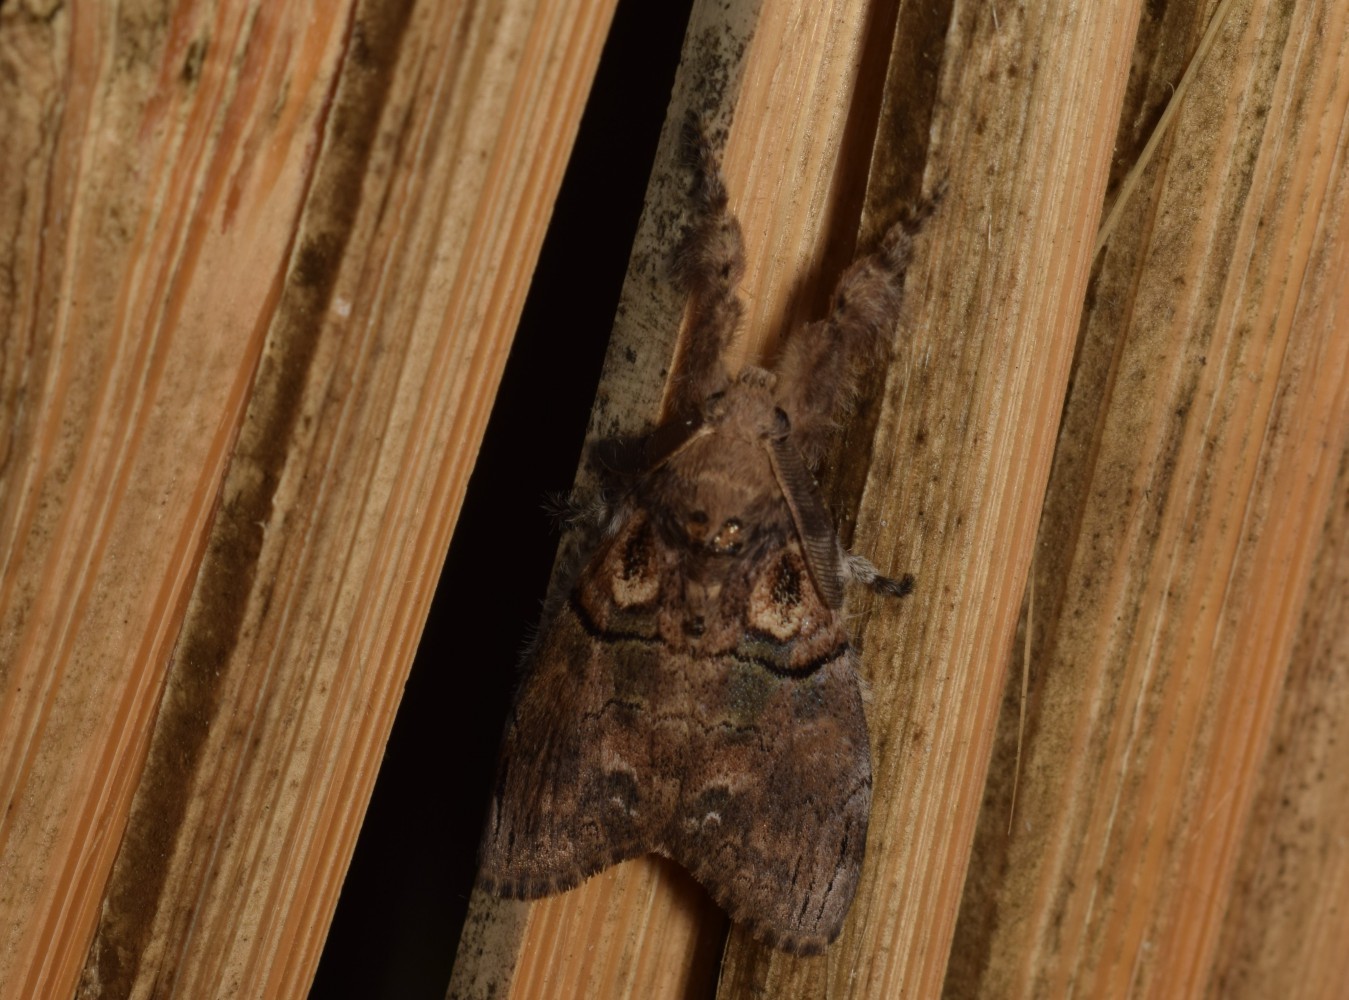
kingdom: Animalia
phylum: Arthropoda
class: Insecta
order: Lepidoptera
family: Erebidae
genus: Olene
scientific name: Olene mendosa
